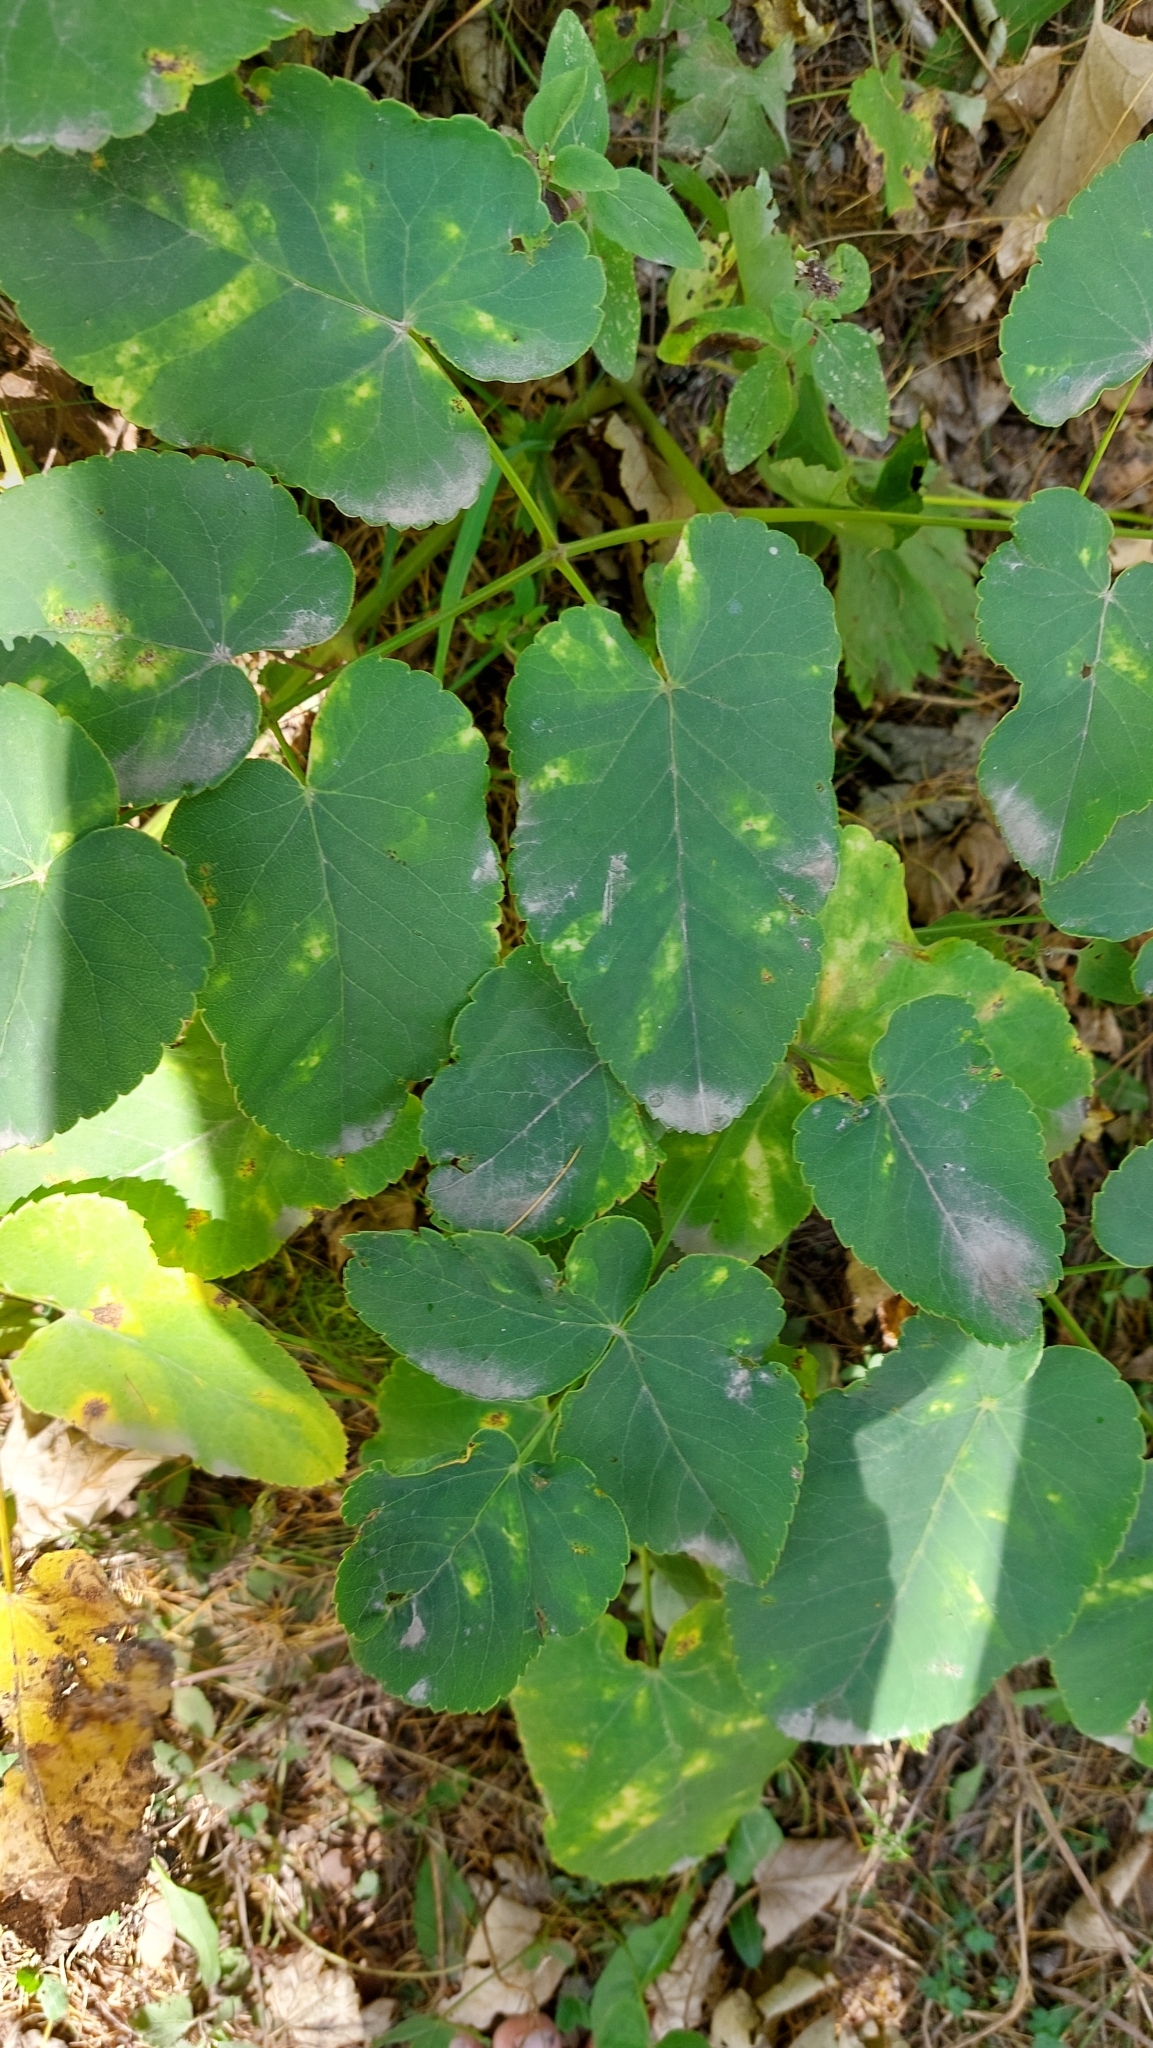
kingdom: Plantae
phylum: Tracheophyta
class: Magnoliopsida
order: Apiales
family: Apiaceae
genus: Laserpitium
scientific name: Laserpitium latifolium
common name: Broadleaf sermountain
